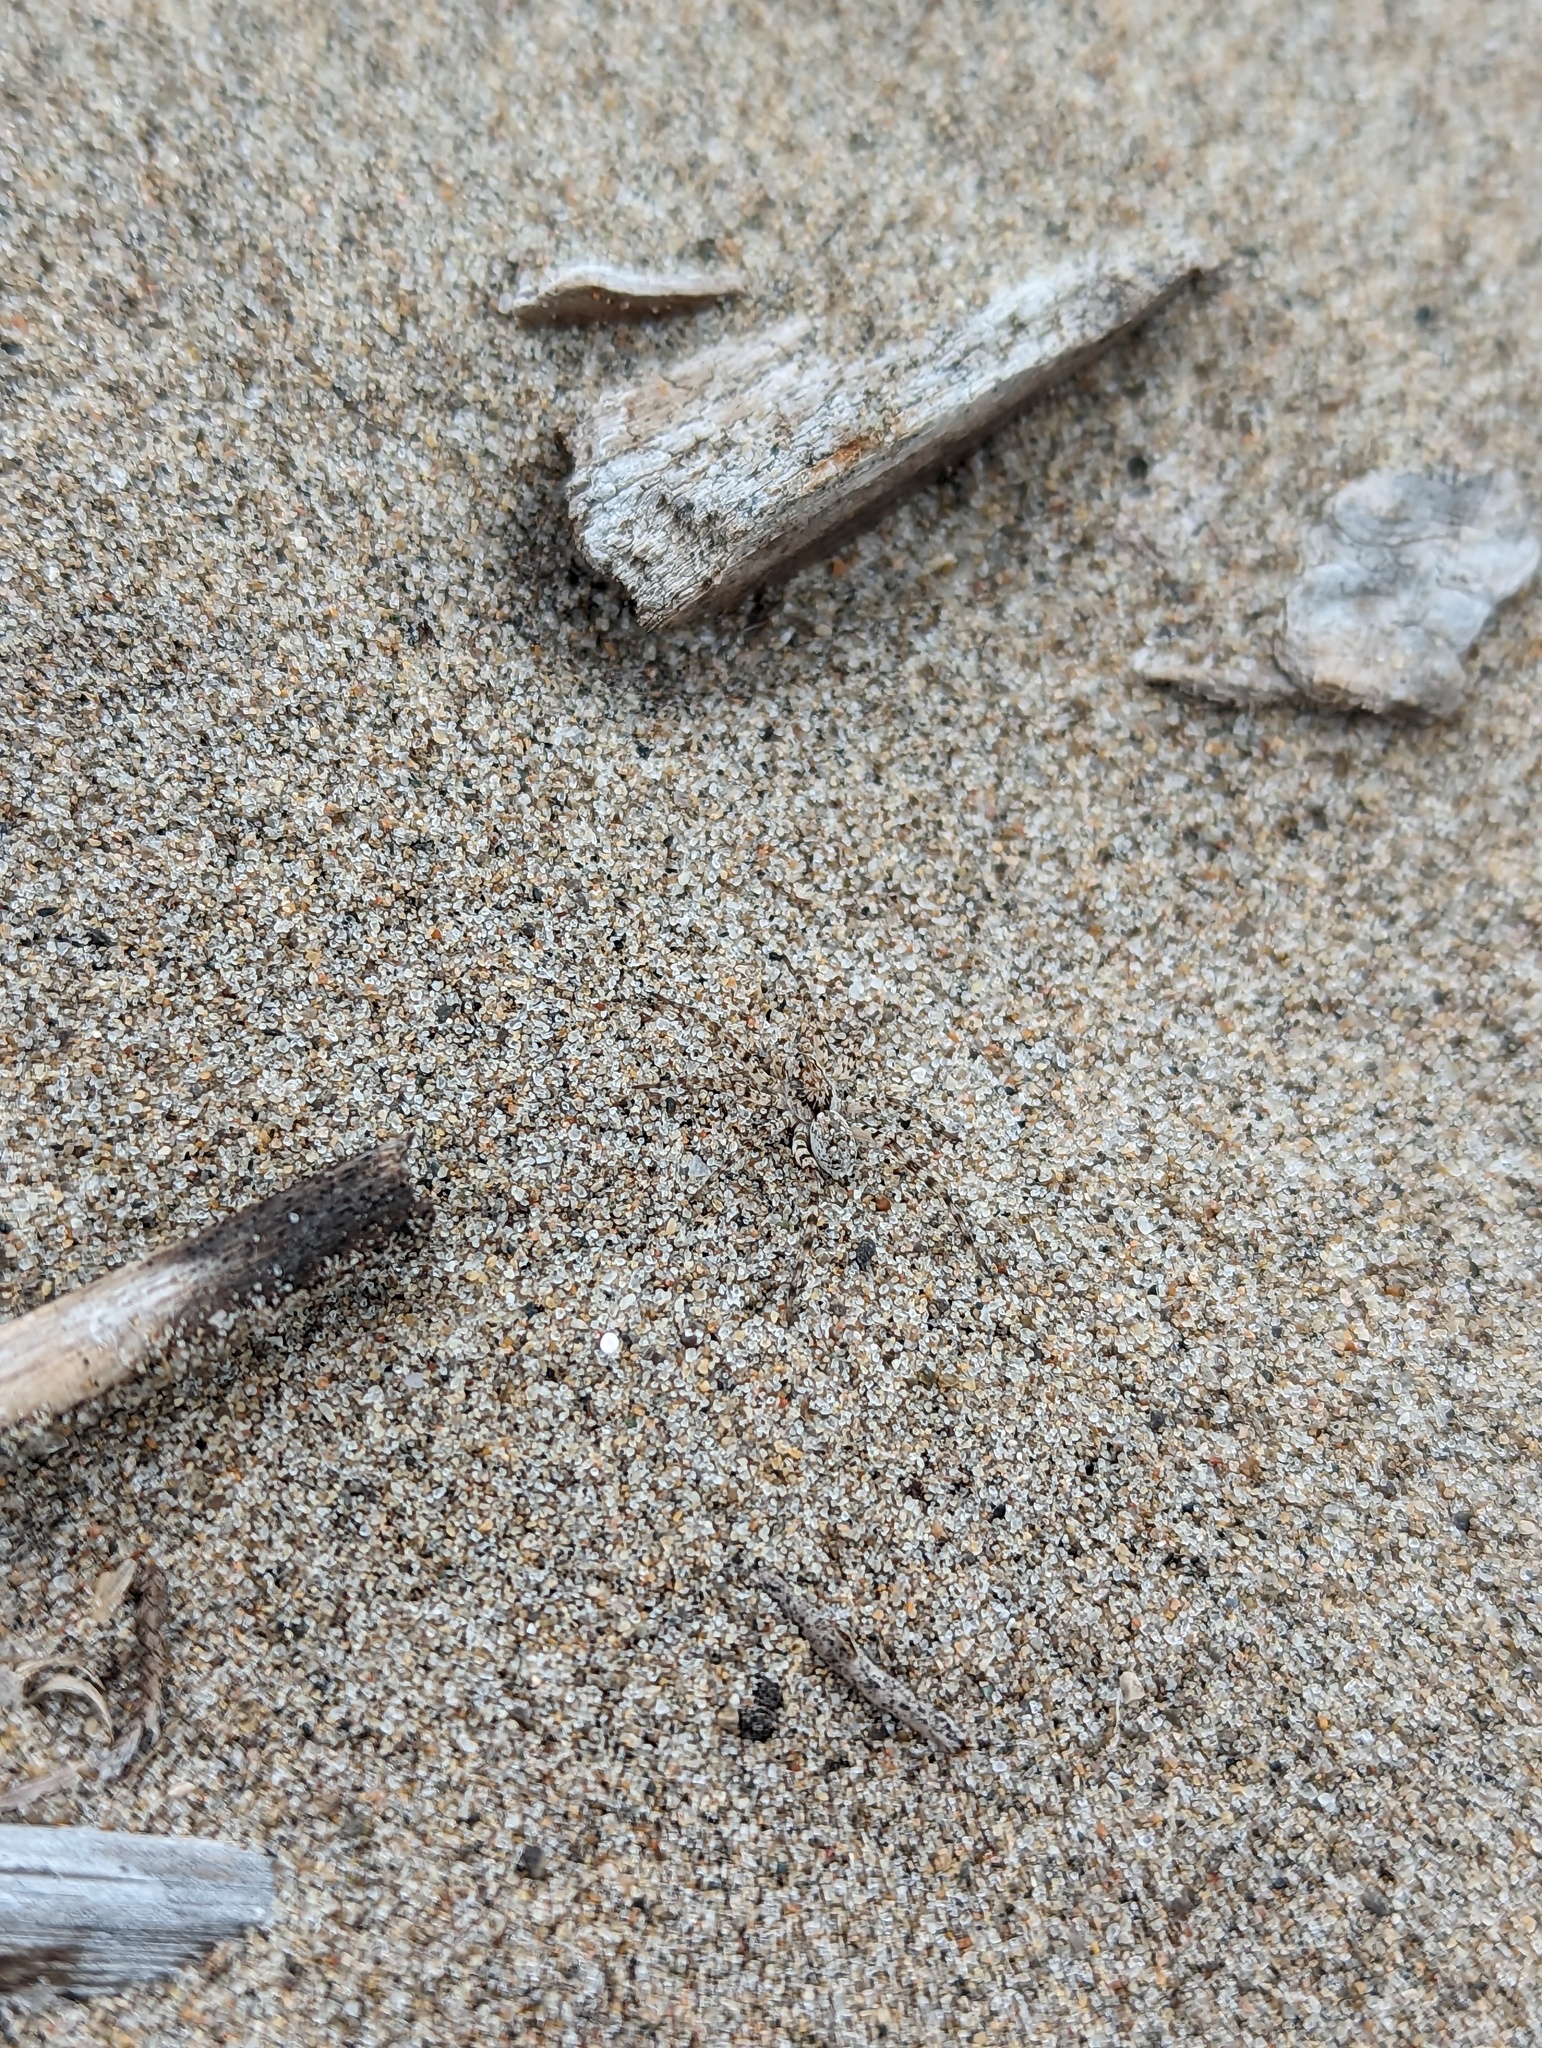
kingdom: Animalia
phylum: Arthropoda
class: Arachnida
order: Araneae
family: Lycosidae
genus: Arctosa
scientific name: Arctosa littoralis
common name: Wolf spiders
